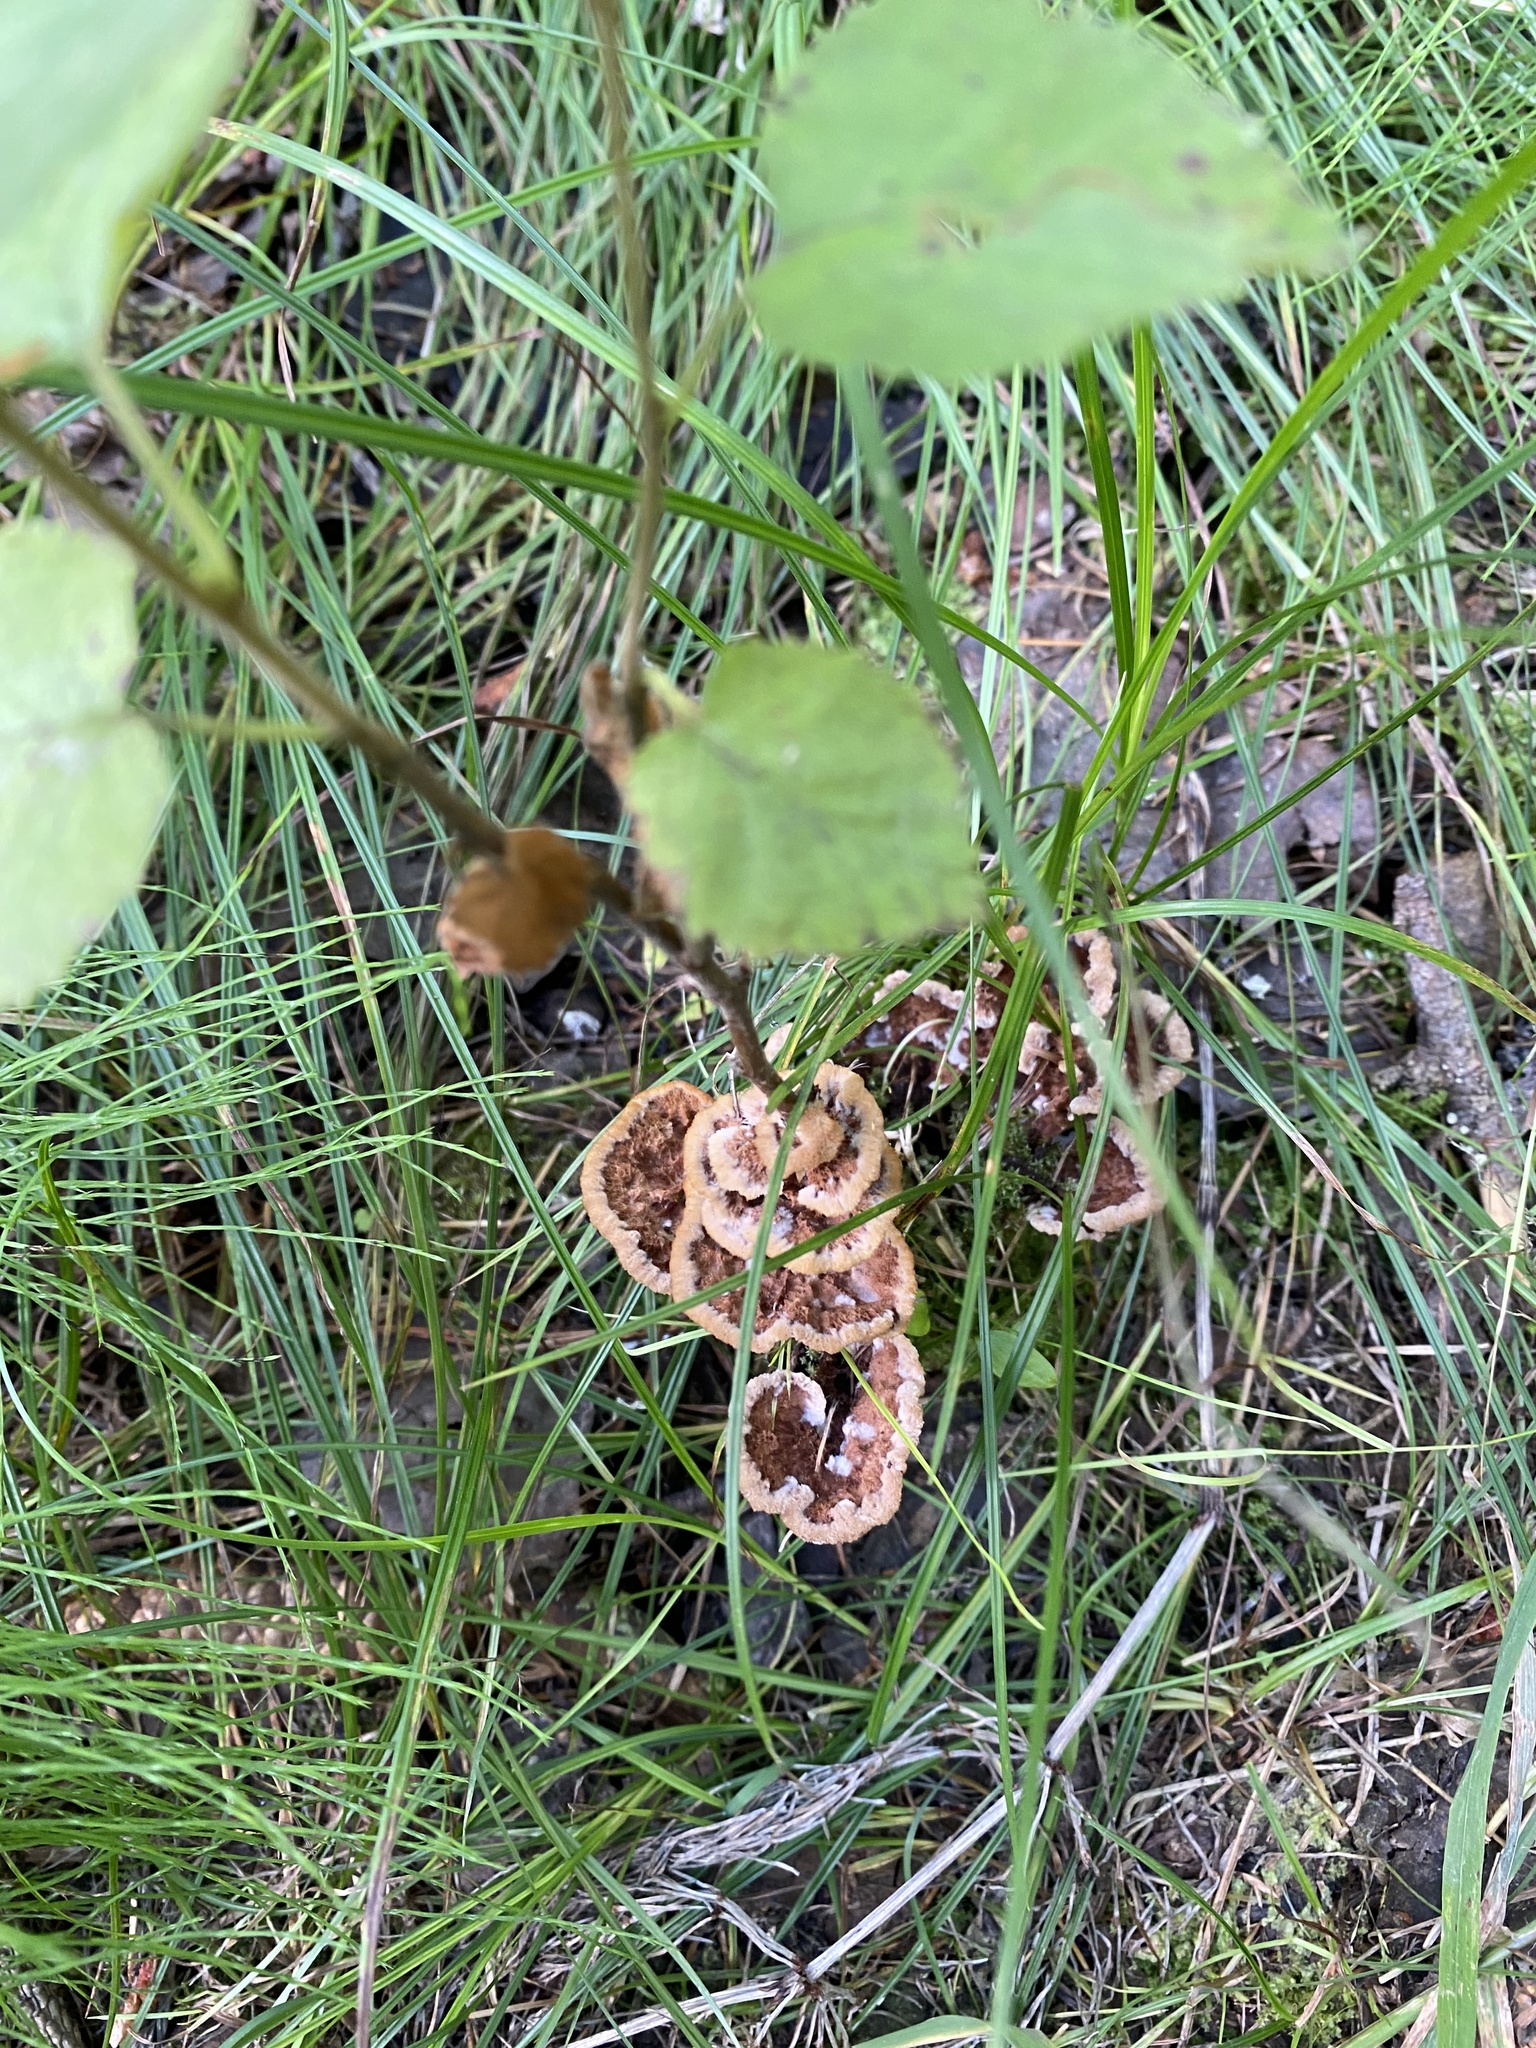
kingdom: Fungi
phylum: Basidiomycota
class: Agaricomycetes
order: Thelephorales
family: Thelephoraceae
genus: Thelephora
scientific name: Thelephora terrestris
